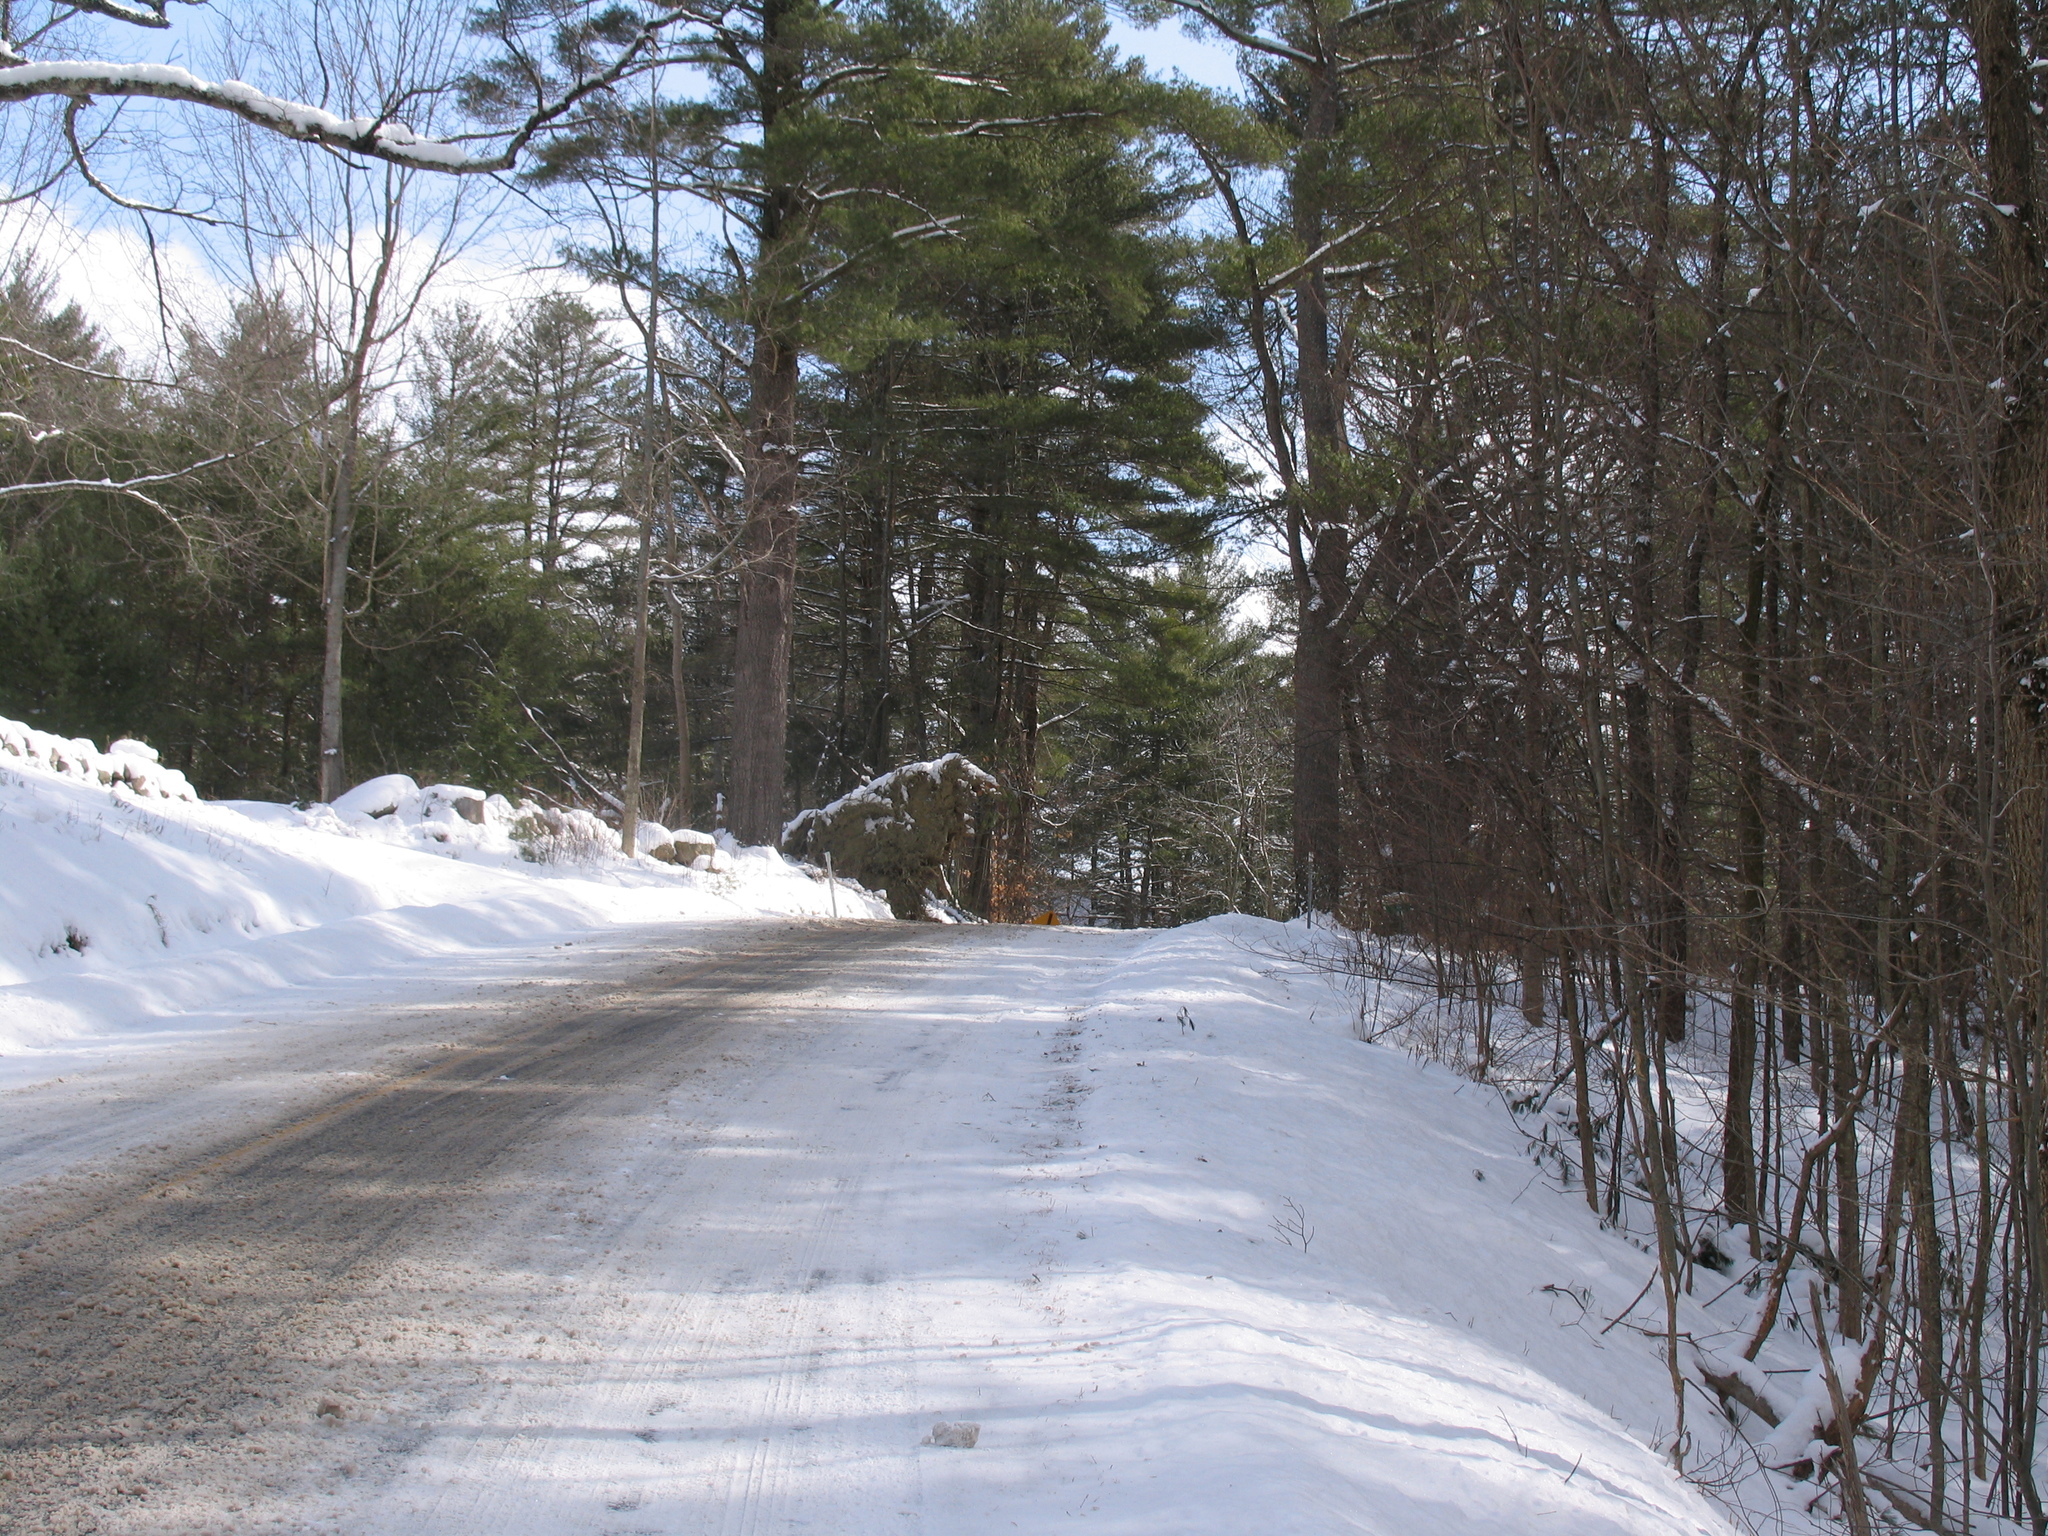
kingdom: Plantae
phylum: Tracheophyta
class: Pinopsida
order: Pinales
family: Pinaceae
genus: Pinus
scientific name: Pinus strobus
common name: Weymouth pine
